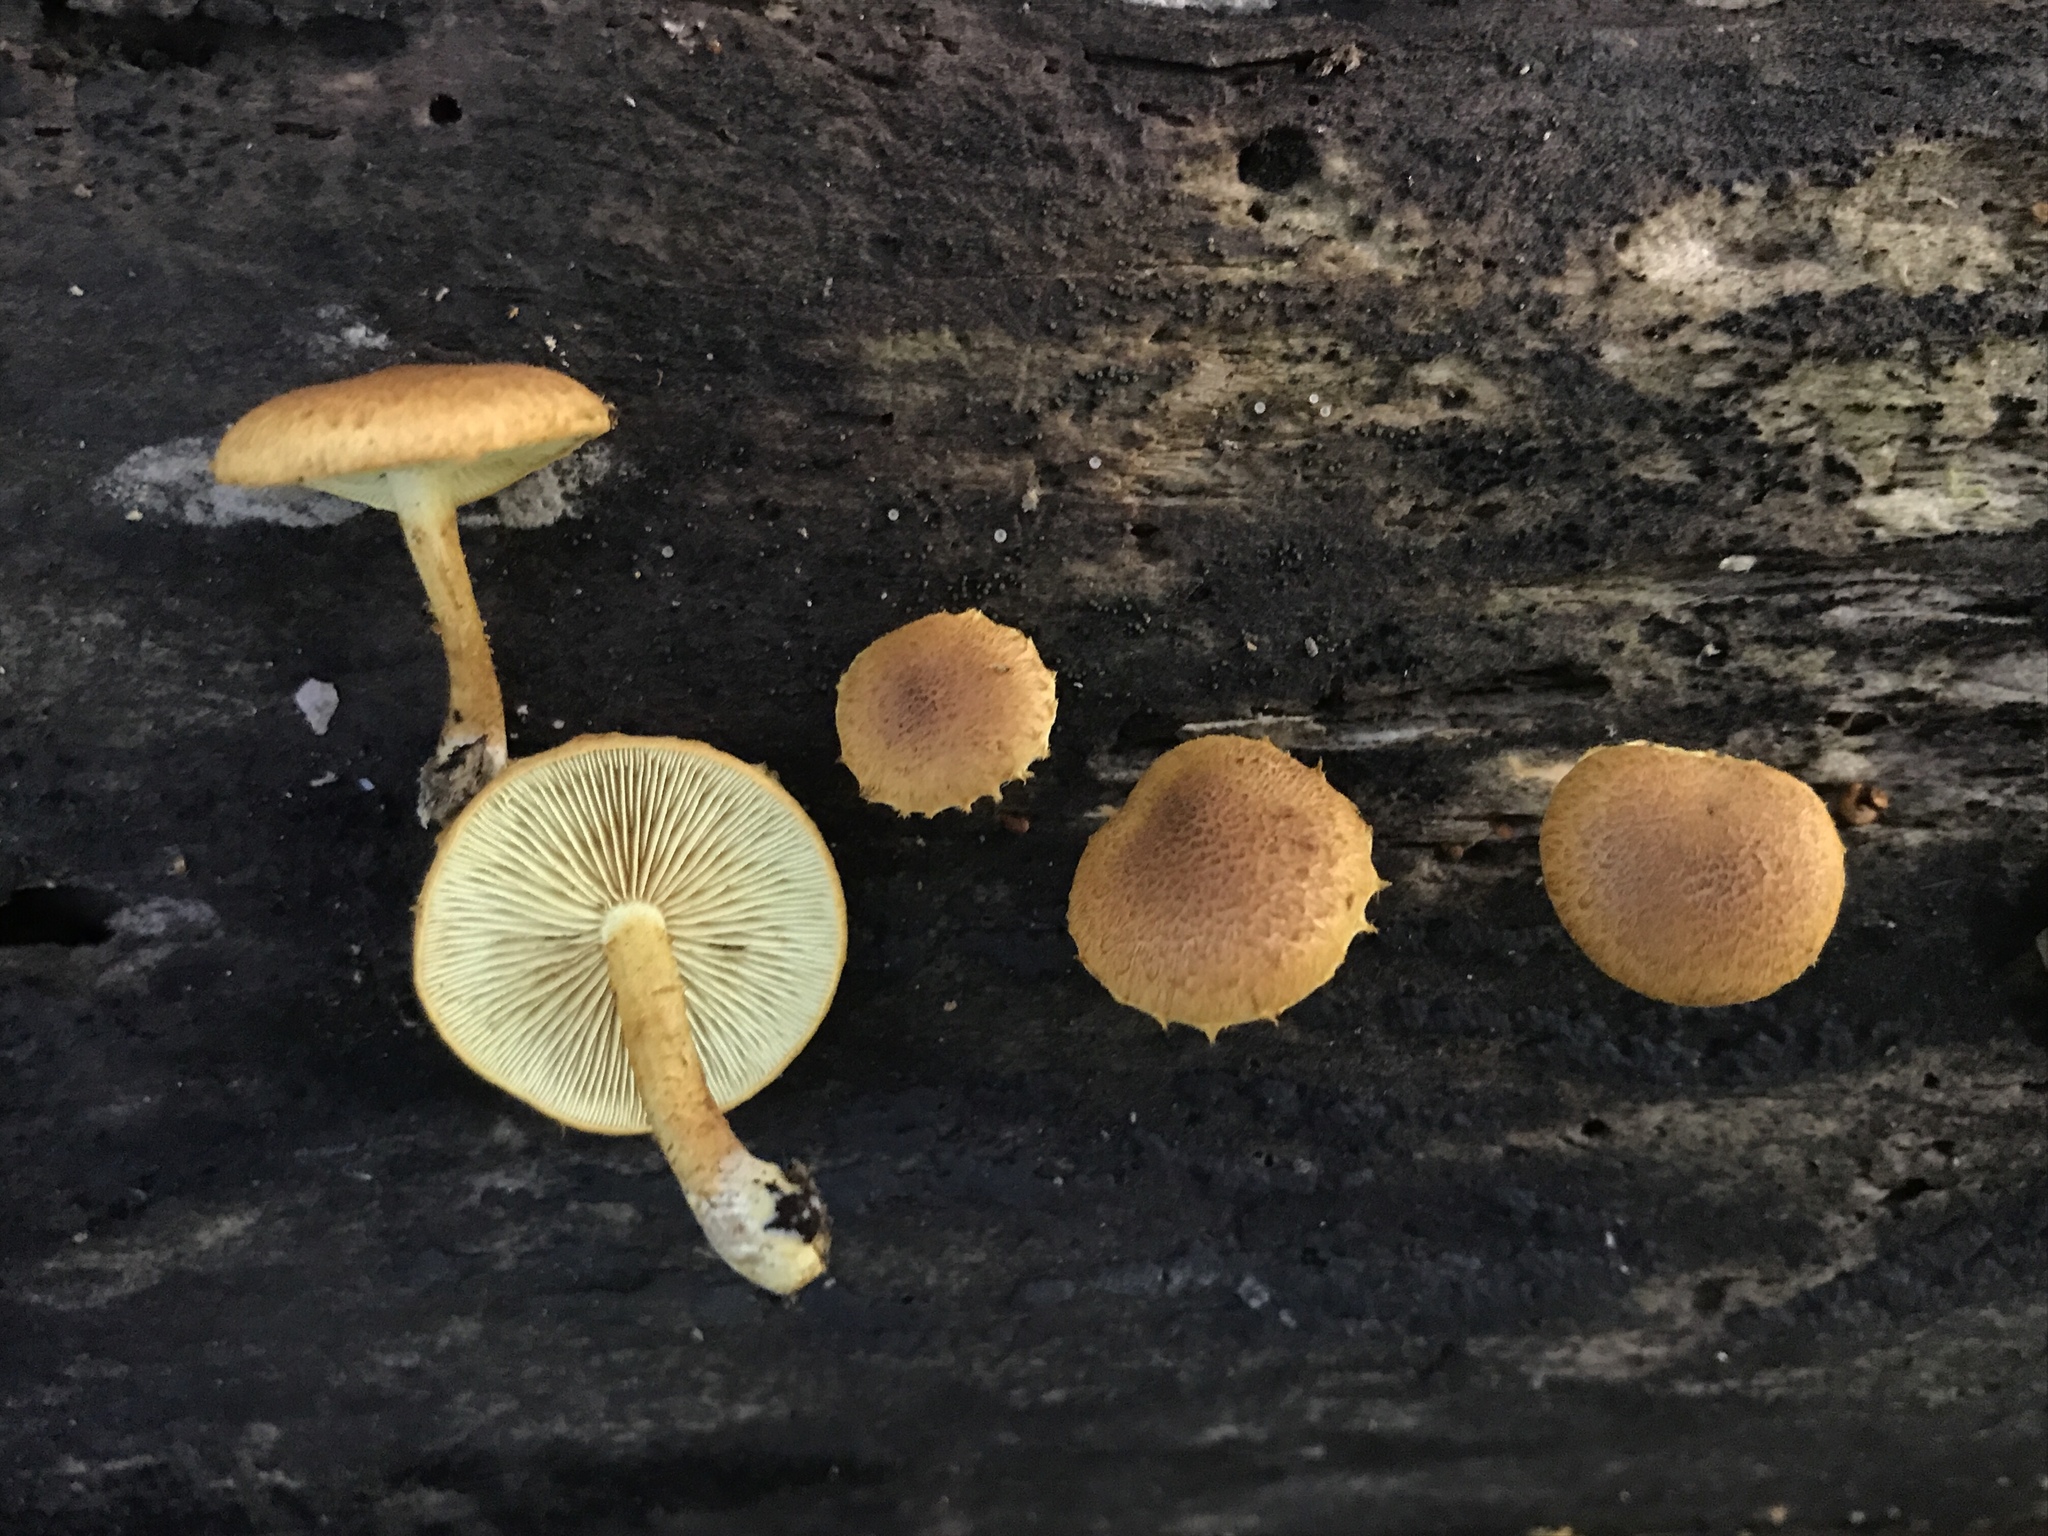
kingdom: Fungi
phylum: Basidiomycota
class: Agaricomycetes
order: Agaricales
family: Tubariaceae
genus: Flammulaster
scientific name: Flammulaster erinaceellus
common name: Powder-scale pholiota
